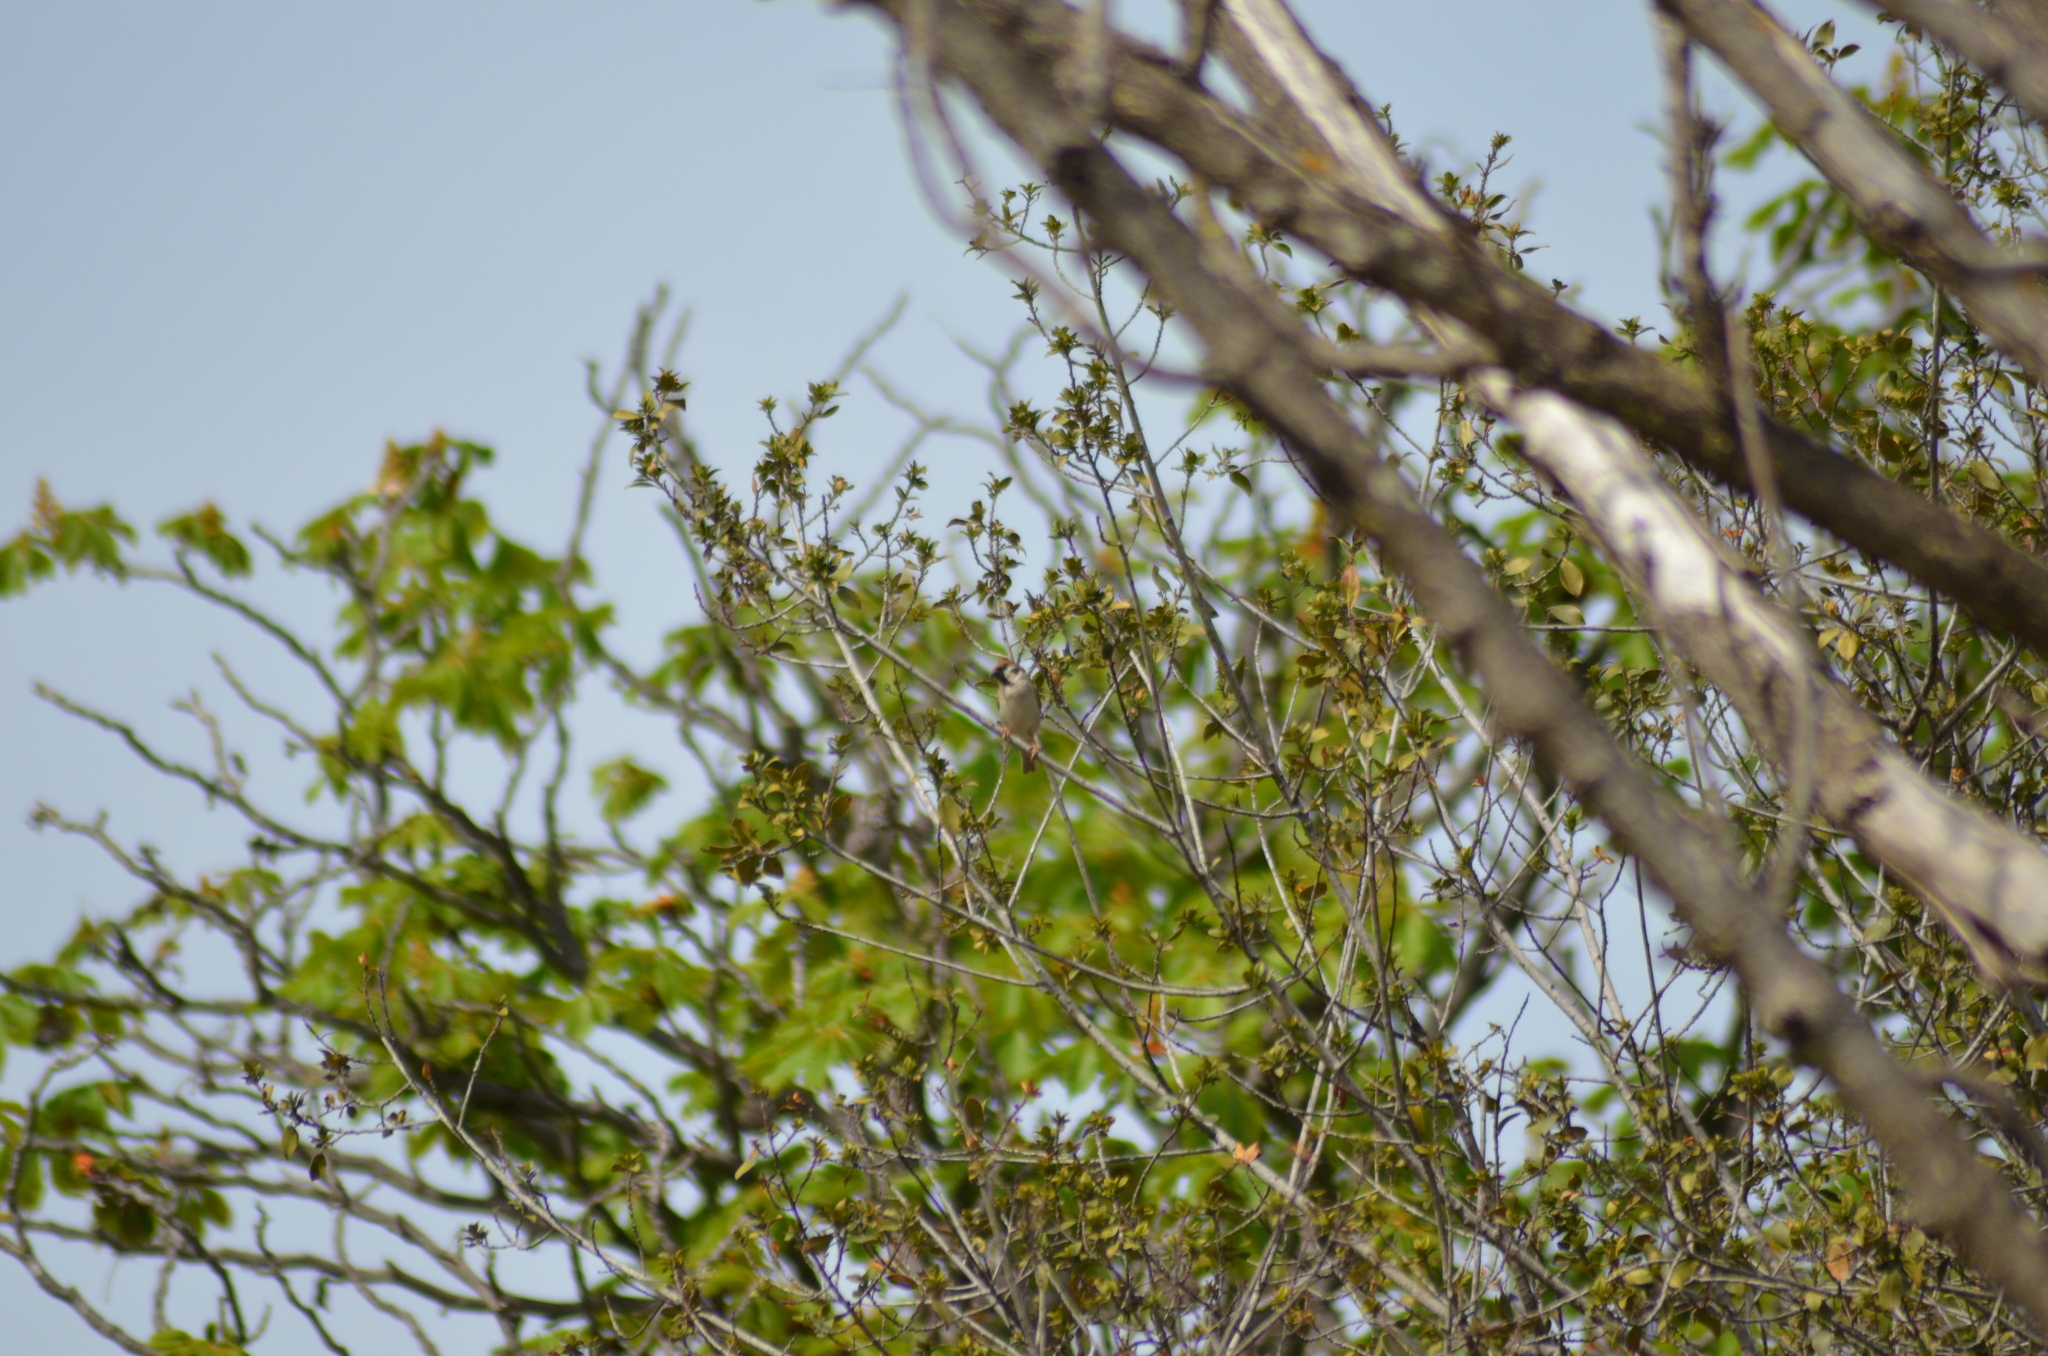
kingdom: Animalia
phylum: Chordata
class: Aves
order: Passeriformes
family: Passeridae
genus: Passer
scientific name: Passer montanus
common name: Eurasian tree sparrow
